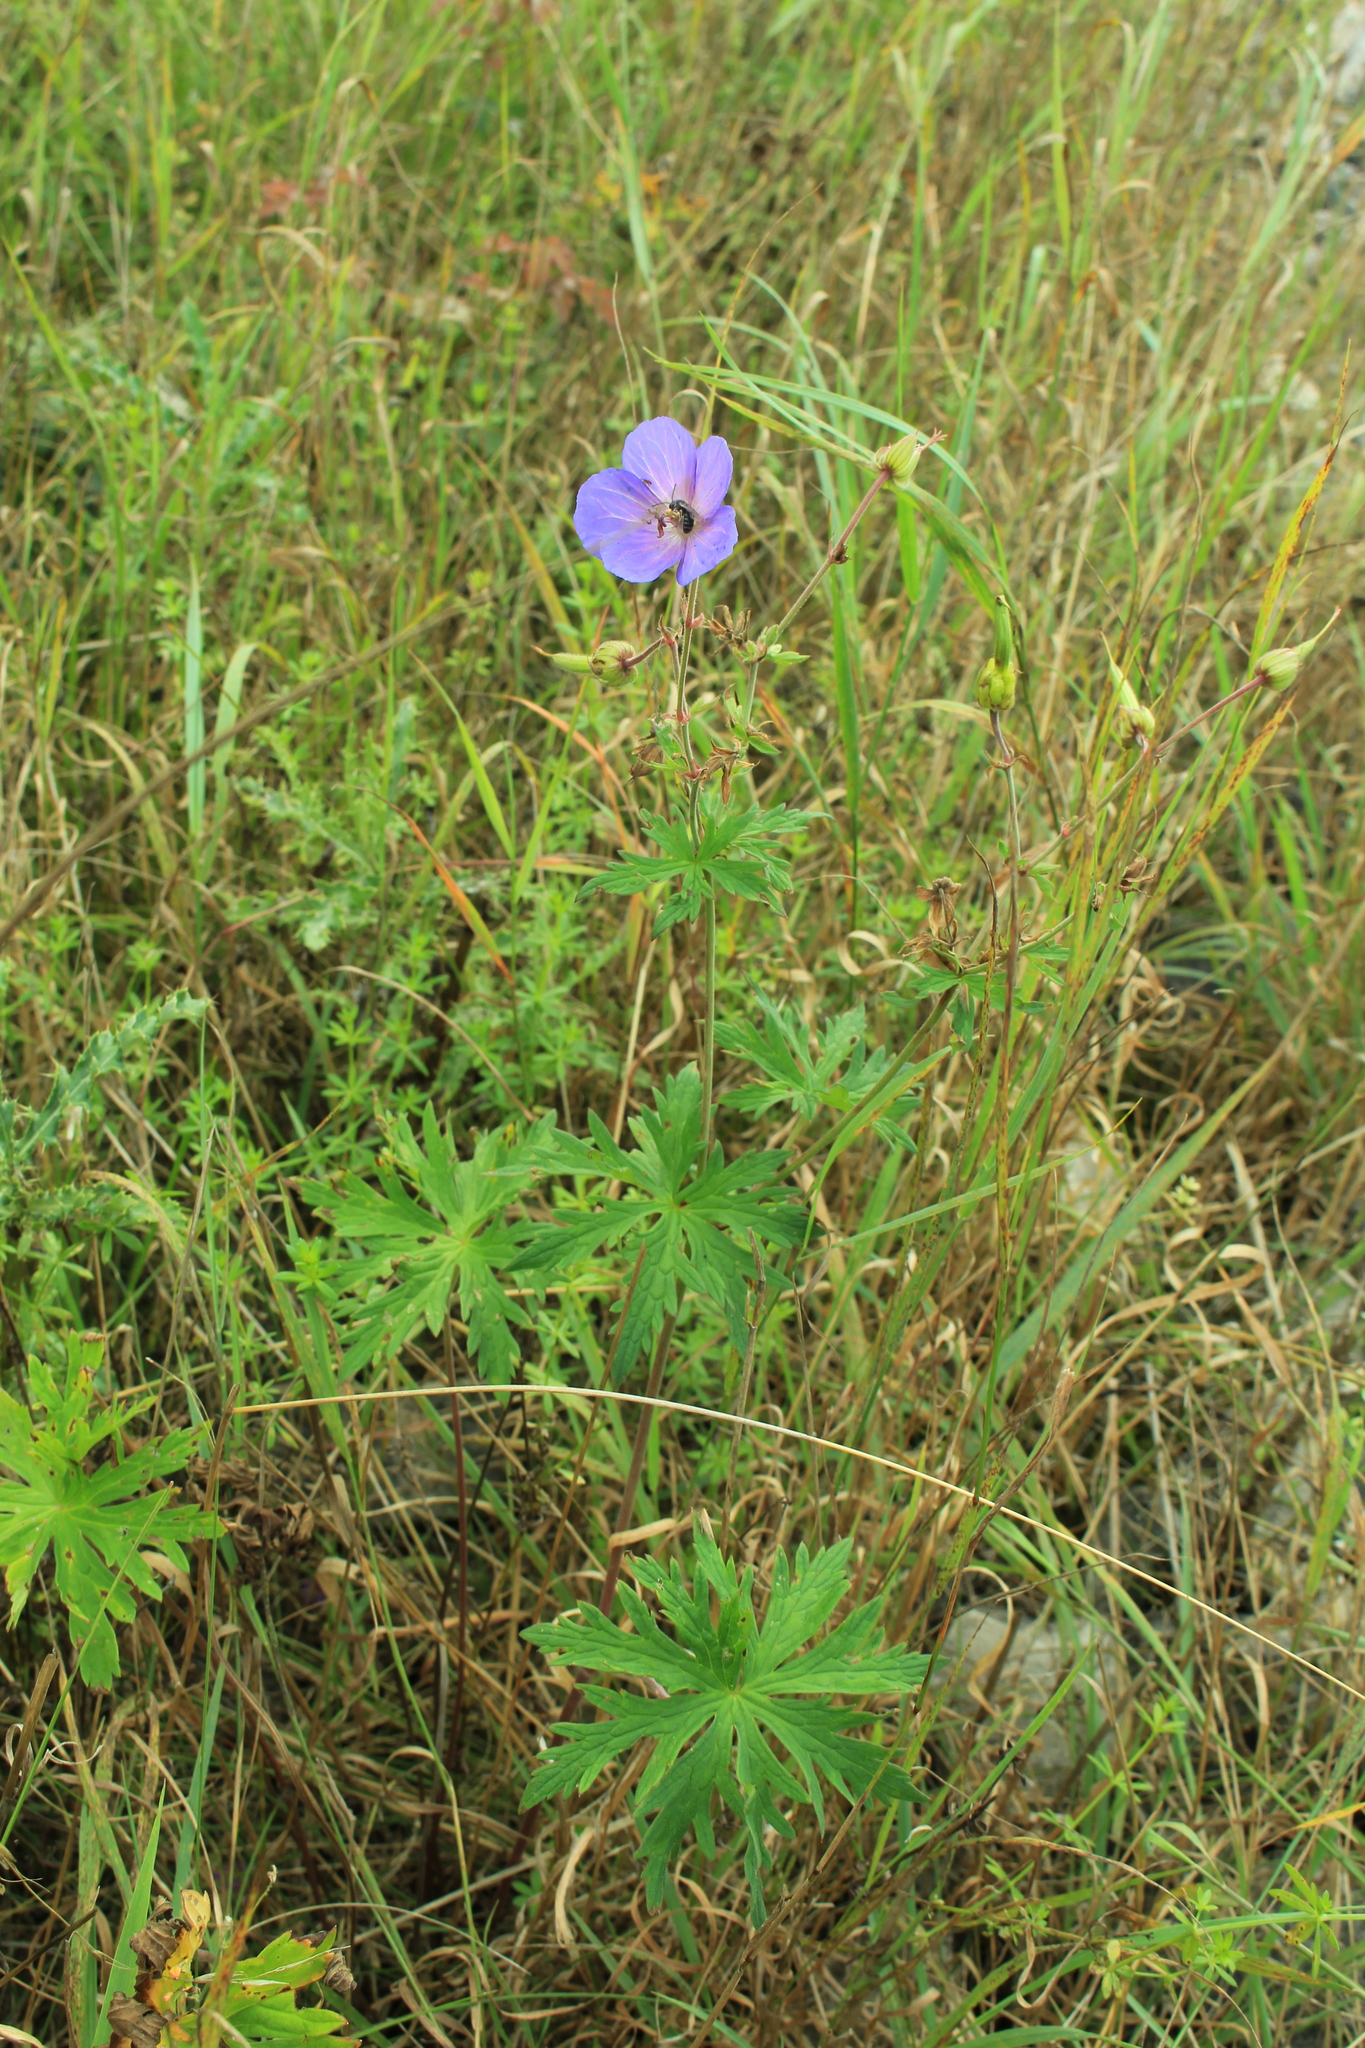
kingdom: Plantae
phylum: Tracheophyta
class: Magnoliopsida
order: Geraniales
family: Geraniaceae
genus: Geranium
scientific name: Geranium pratense
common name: Meadow crane's-bill
